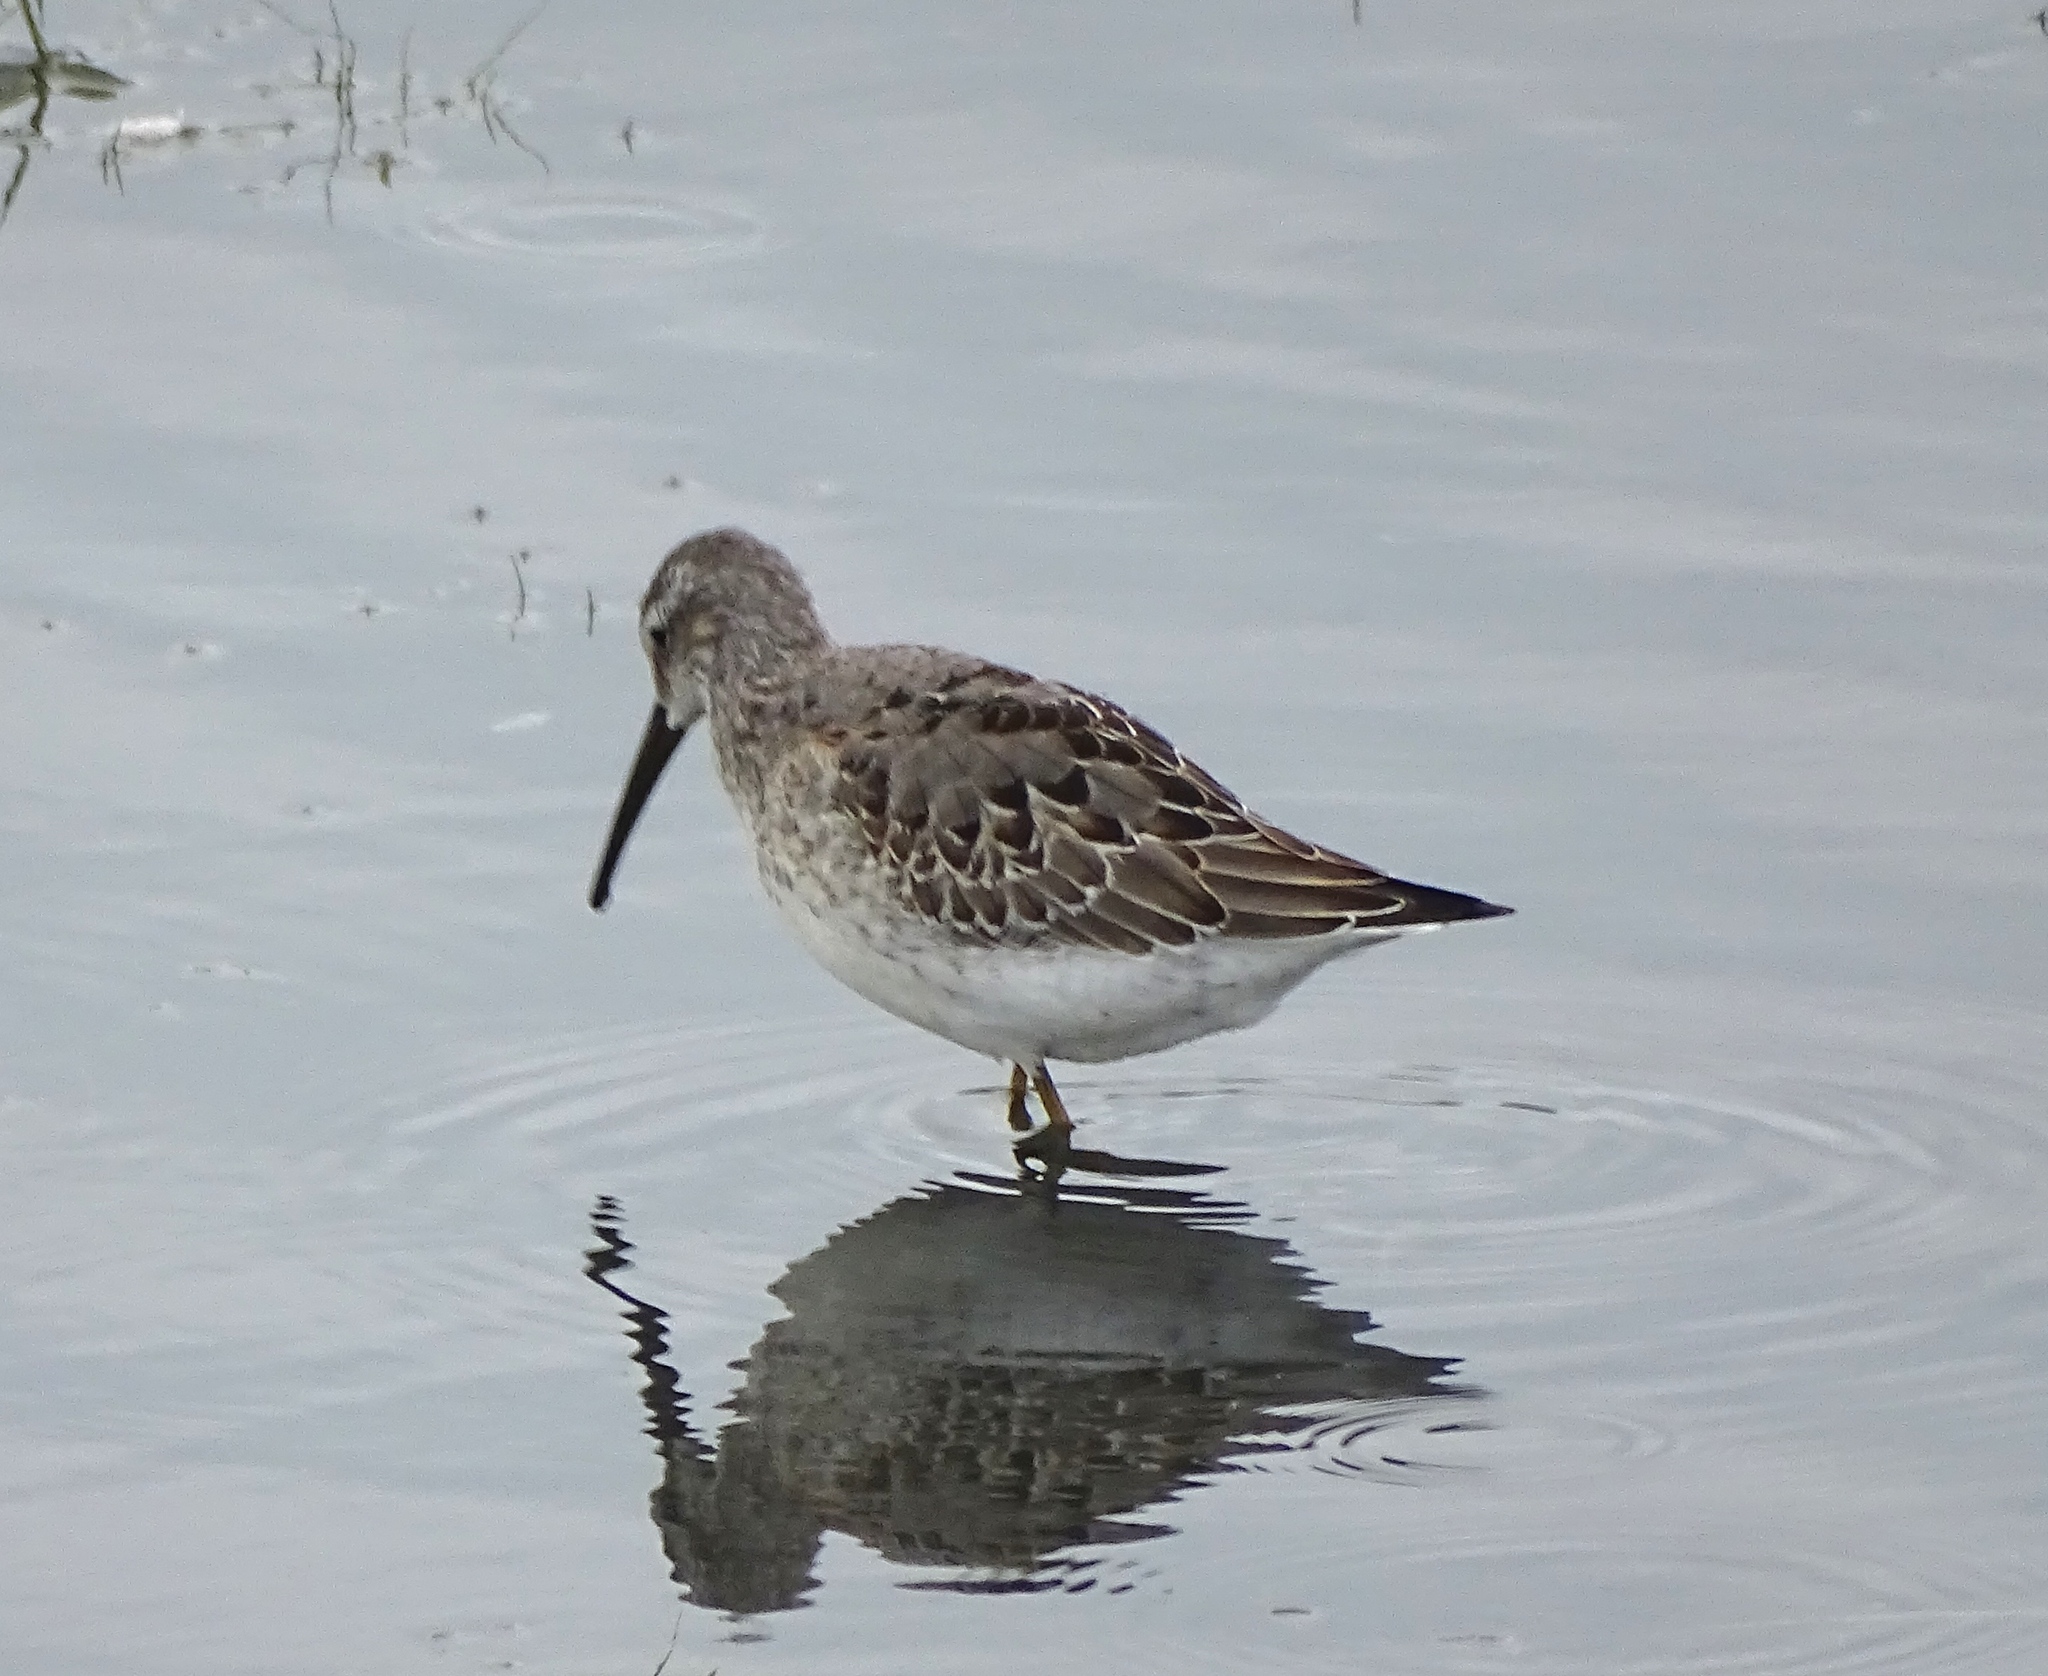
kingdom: Animalia
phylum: Chordata
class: Aves
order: Charadriiformes
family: Scolopacidae
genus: Calidris
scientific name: Calidris himantopus
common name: Stilt sandpiper
